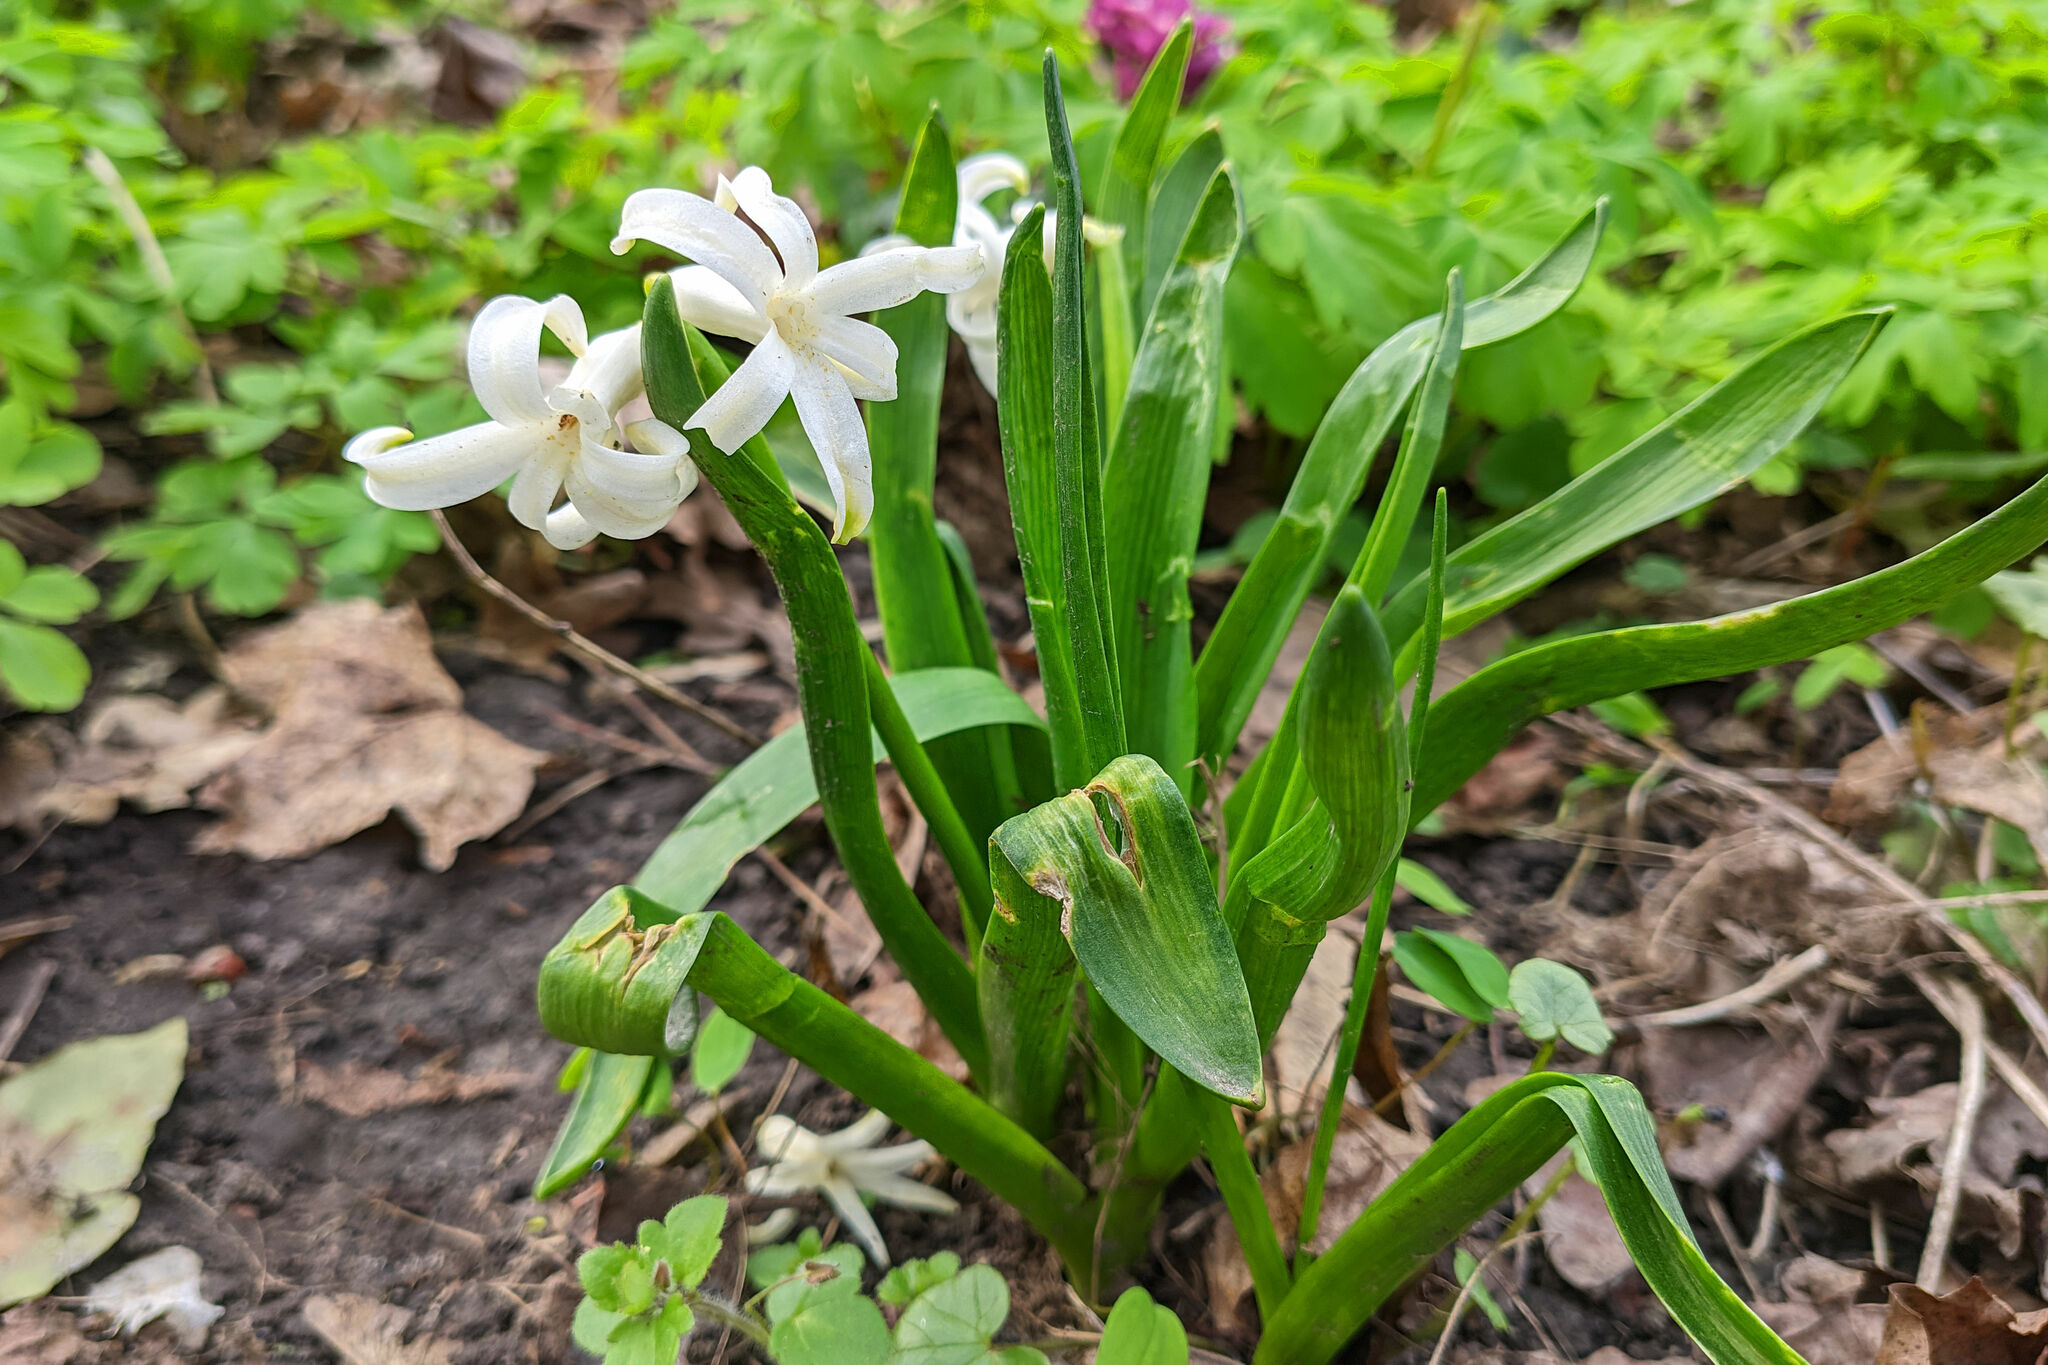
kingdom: Plantae
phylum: Tracheophyta
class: Liliopsida
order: Asparagales
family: Asparagaceae
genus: Hyacinthus
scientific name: Hyacinthus orientalis
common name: Hyacinth
